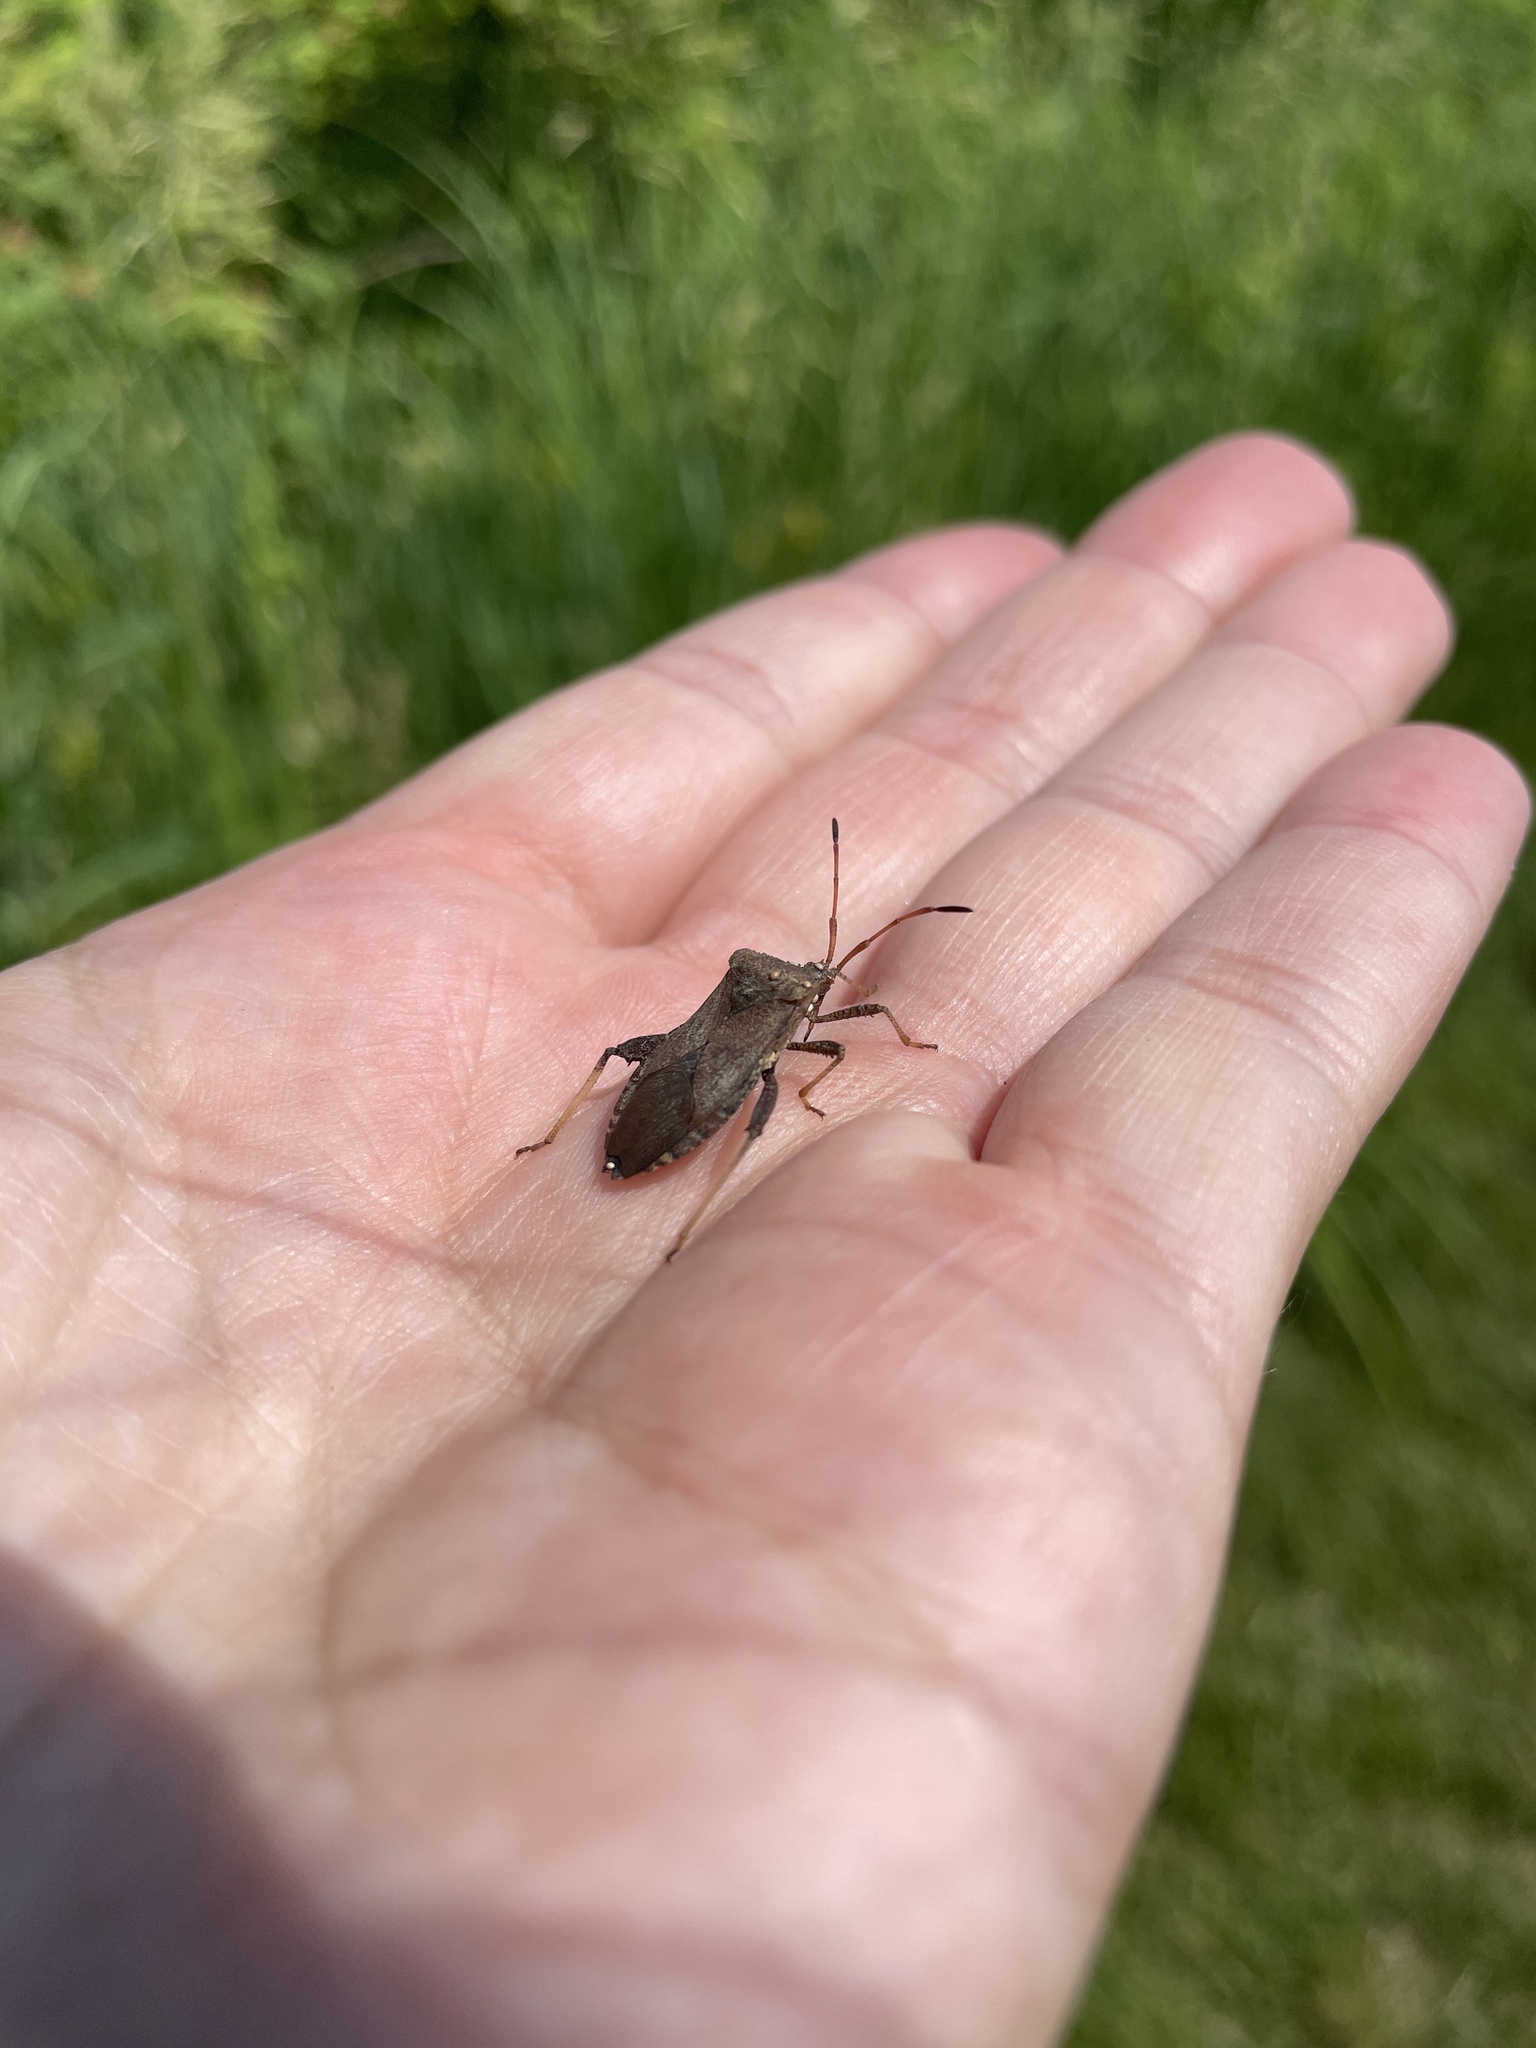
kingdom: Animalia
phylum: Arthropoda
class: Insecta
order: Hemiptera
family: Coreidae
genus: Euthochtha
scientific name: Euthochtha galeator
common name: Helmeted squash bug
